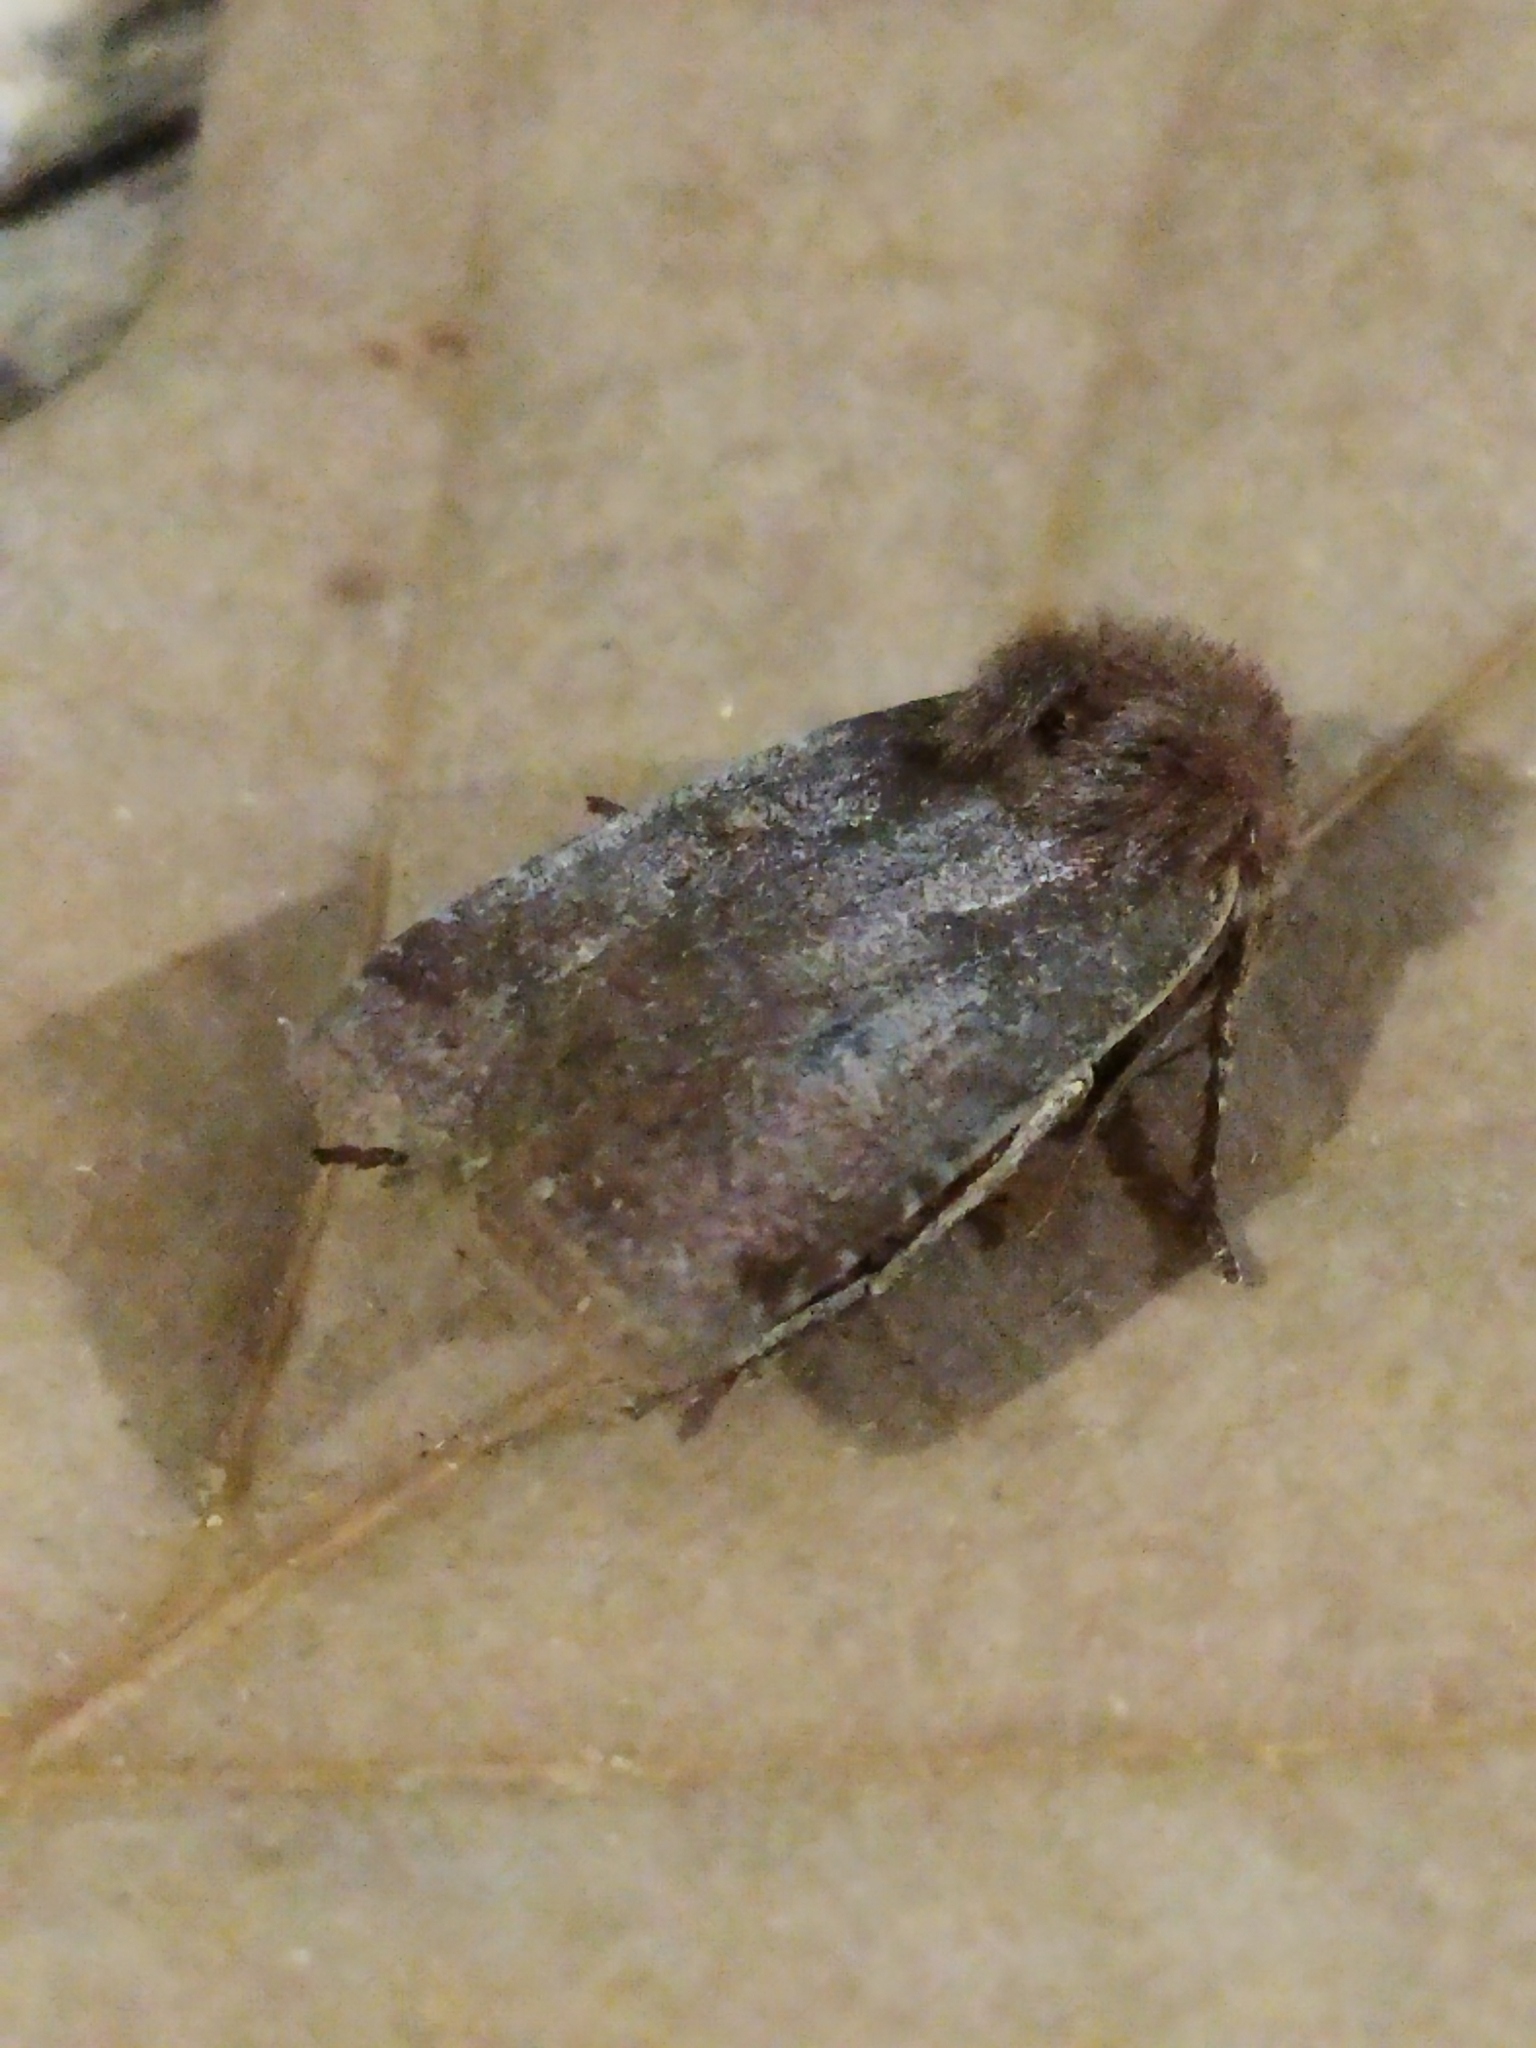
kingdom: Animalia
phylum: Arthropoda
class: Insecta
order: Lepidoptera
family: Noctuidae
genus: Conistra
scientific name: Conistra
